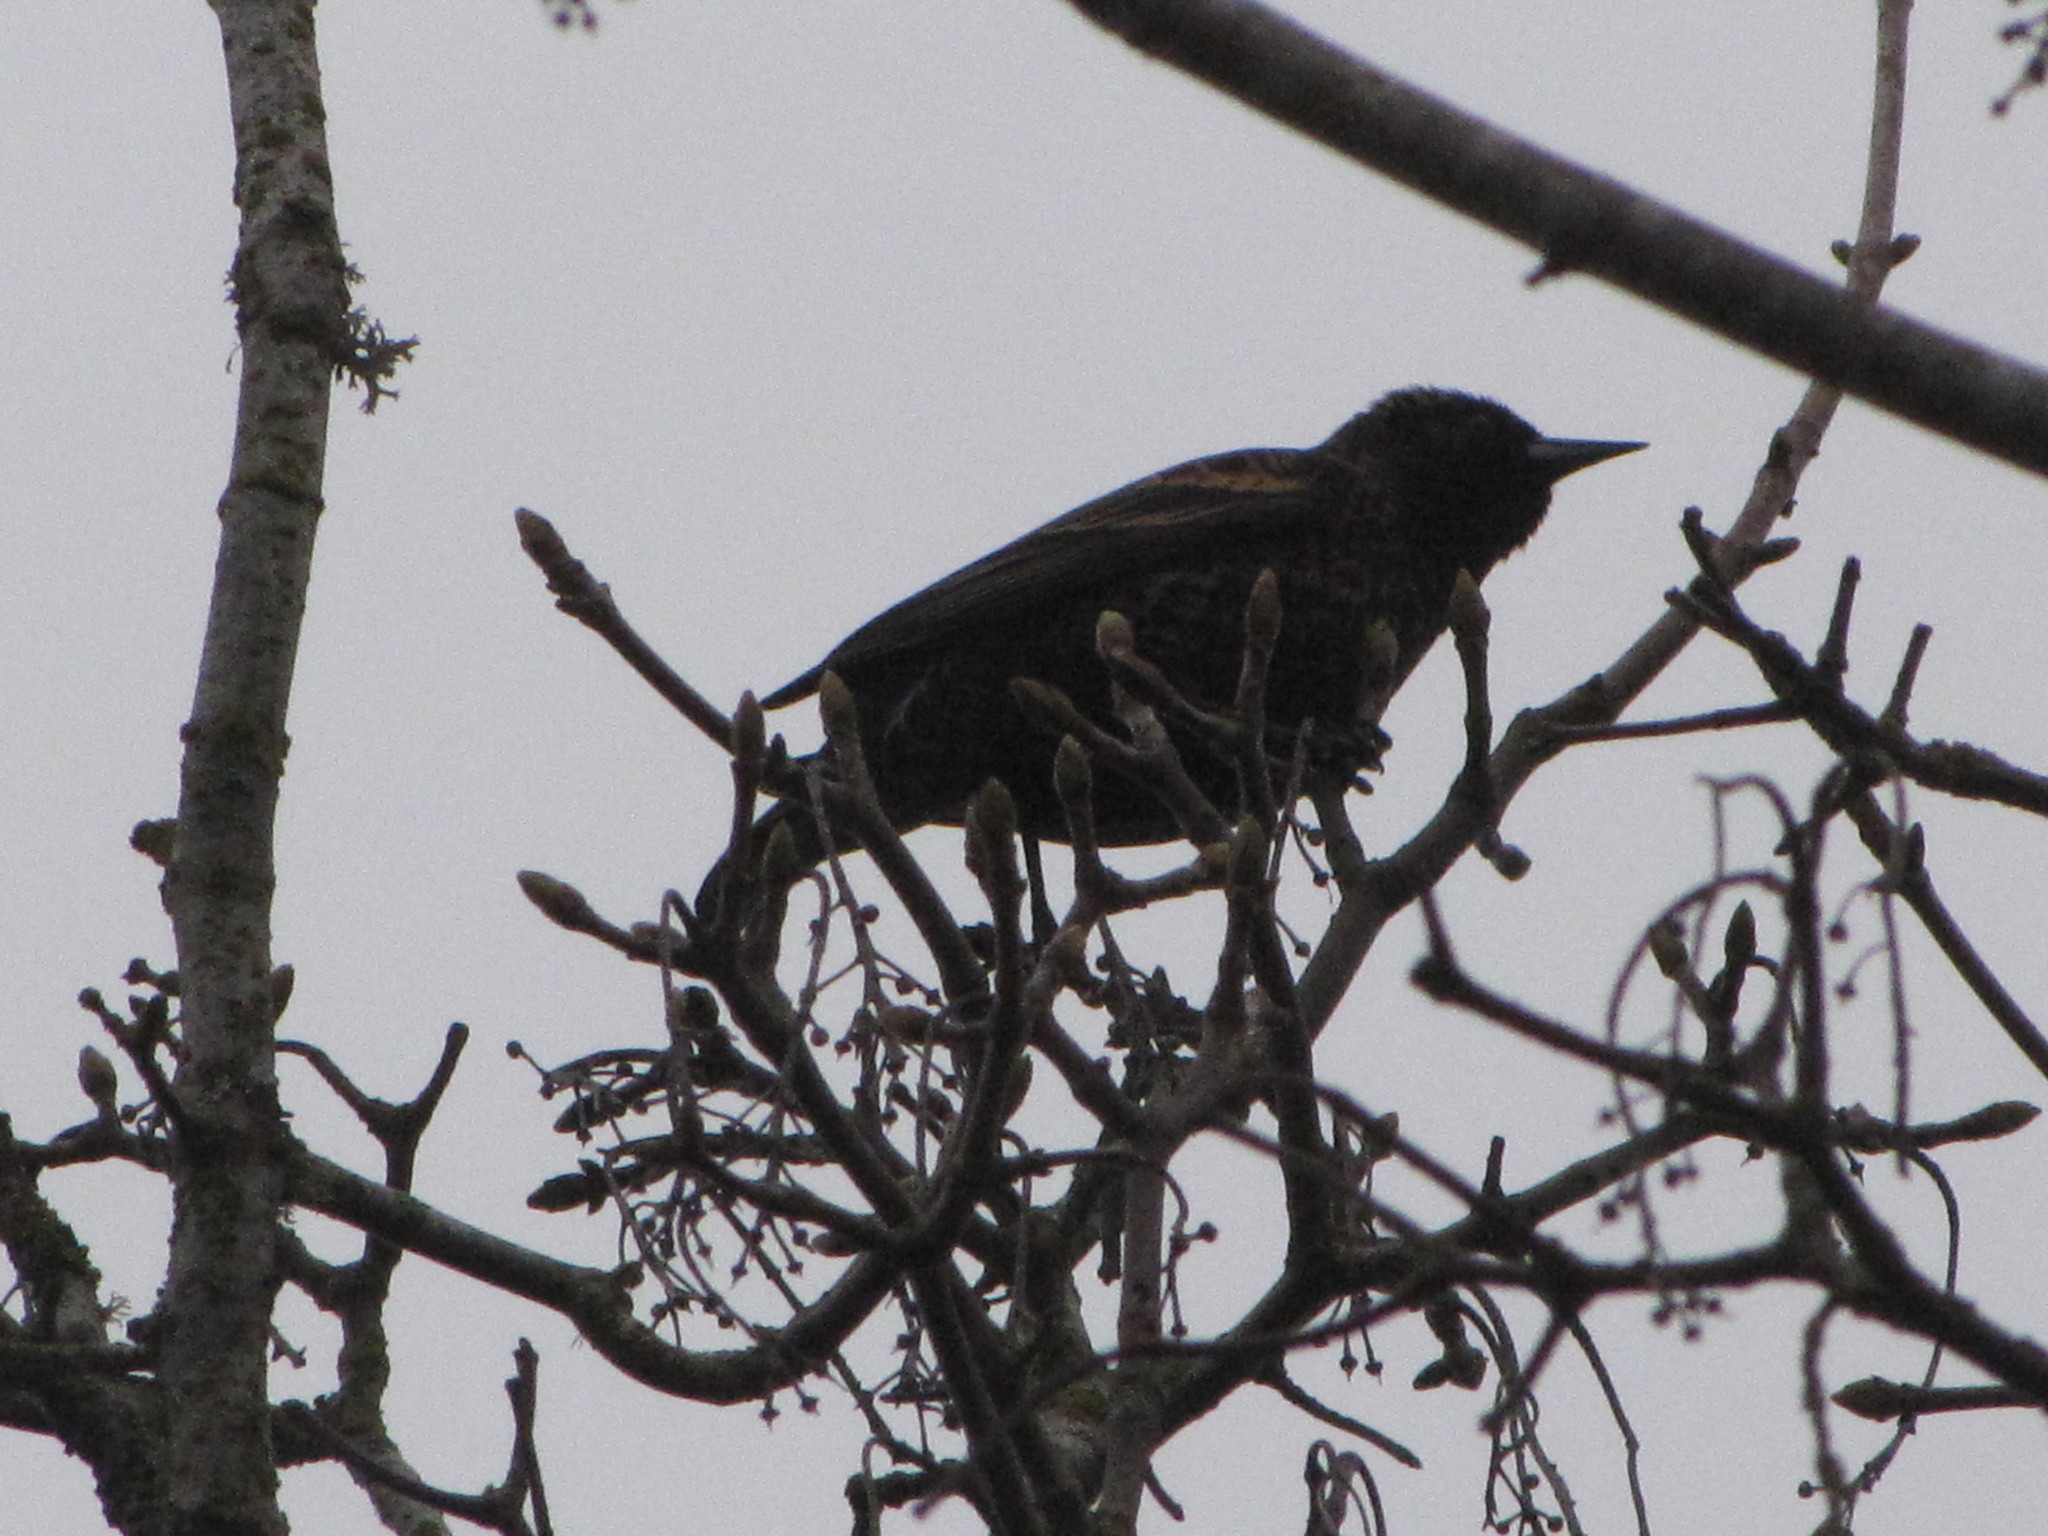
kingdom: Animalia
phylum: Chordata
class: Aves
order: Passeriformes
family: Icteridae
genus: Agelaius
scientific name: Agelaius phoeniceus
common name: Red-winged blackbird
